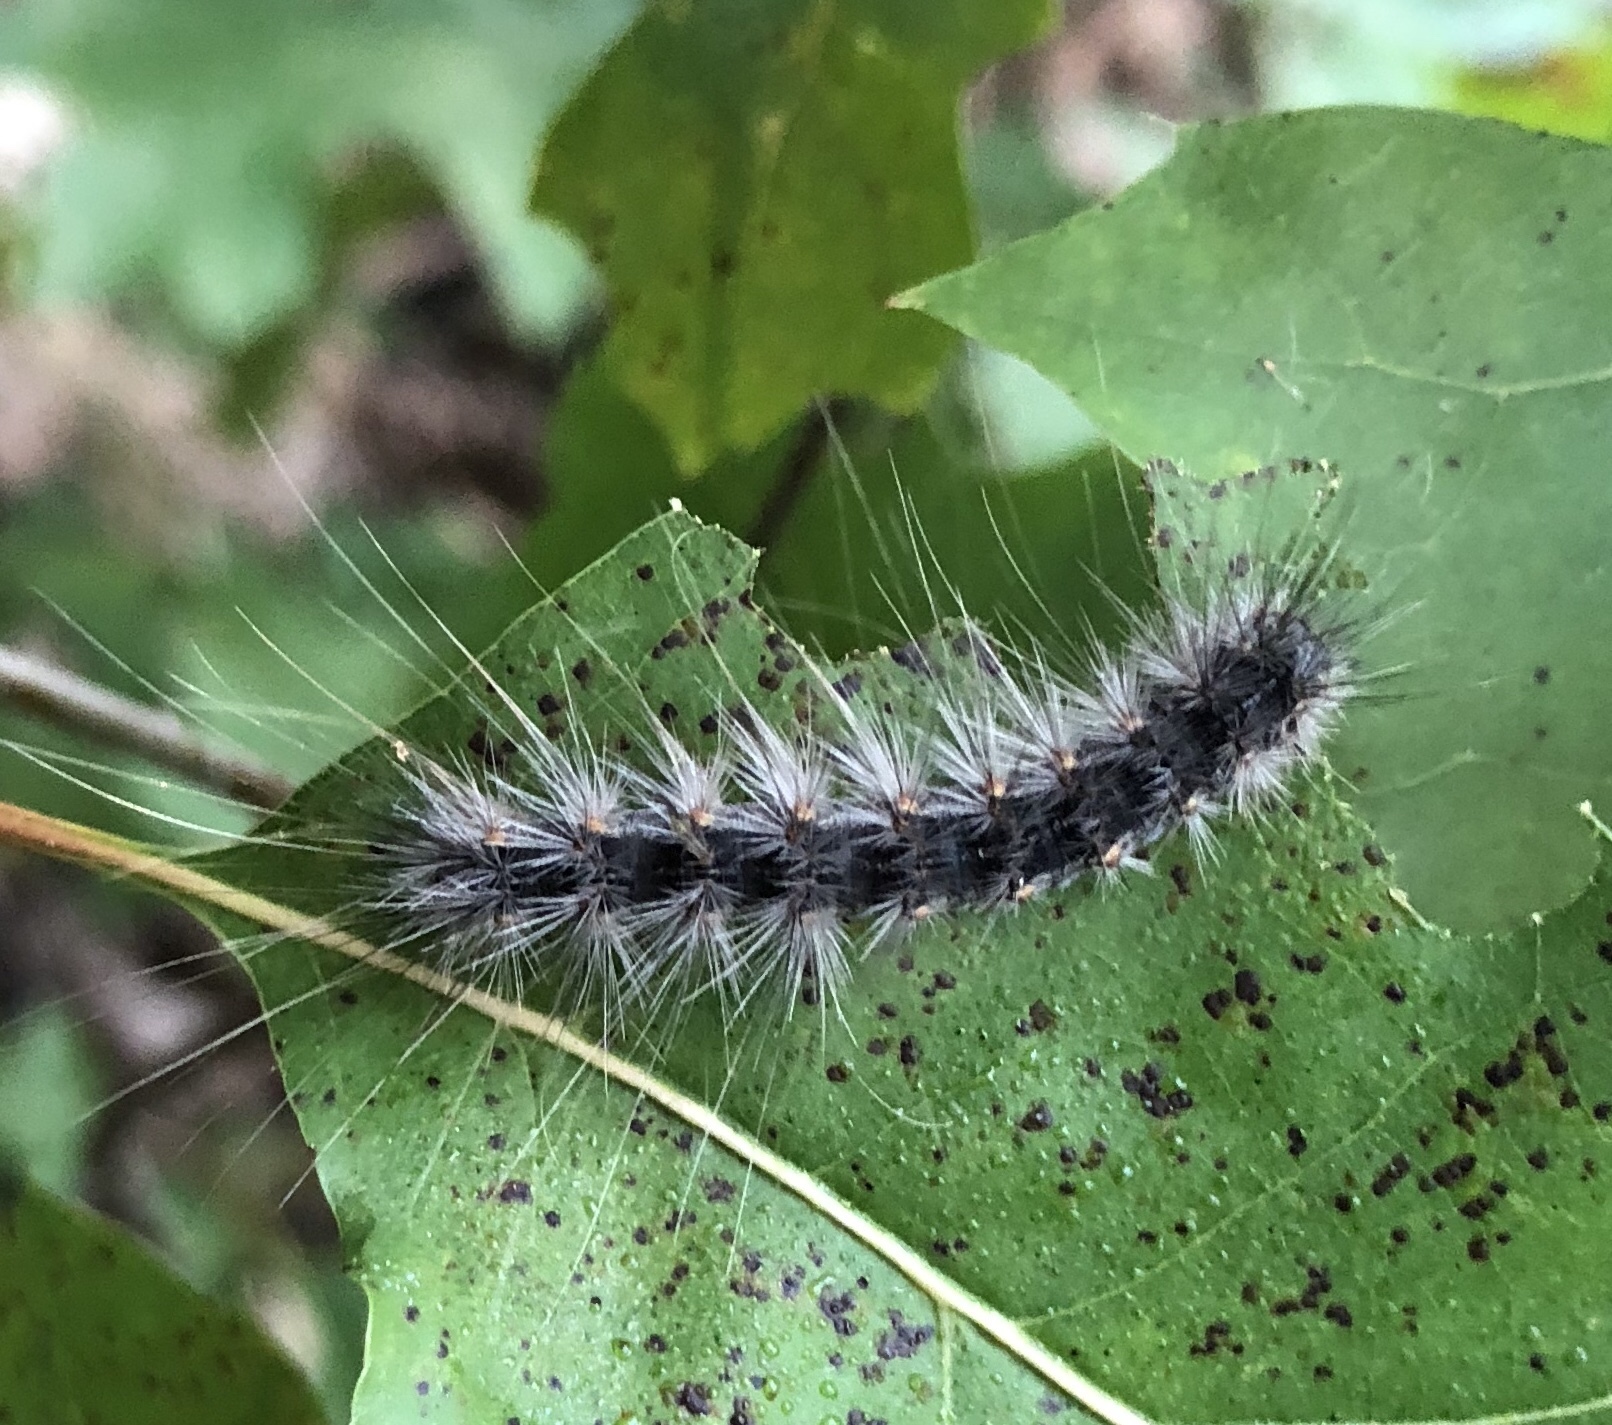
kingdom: Animalia
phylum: Arthropoda
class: Insecta
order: Lepidoptera
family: Erebidae
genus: Hyphantria
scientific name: Hyphantria cunea
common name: American white moth
